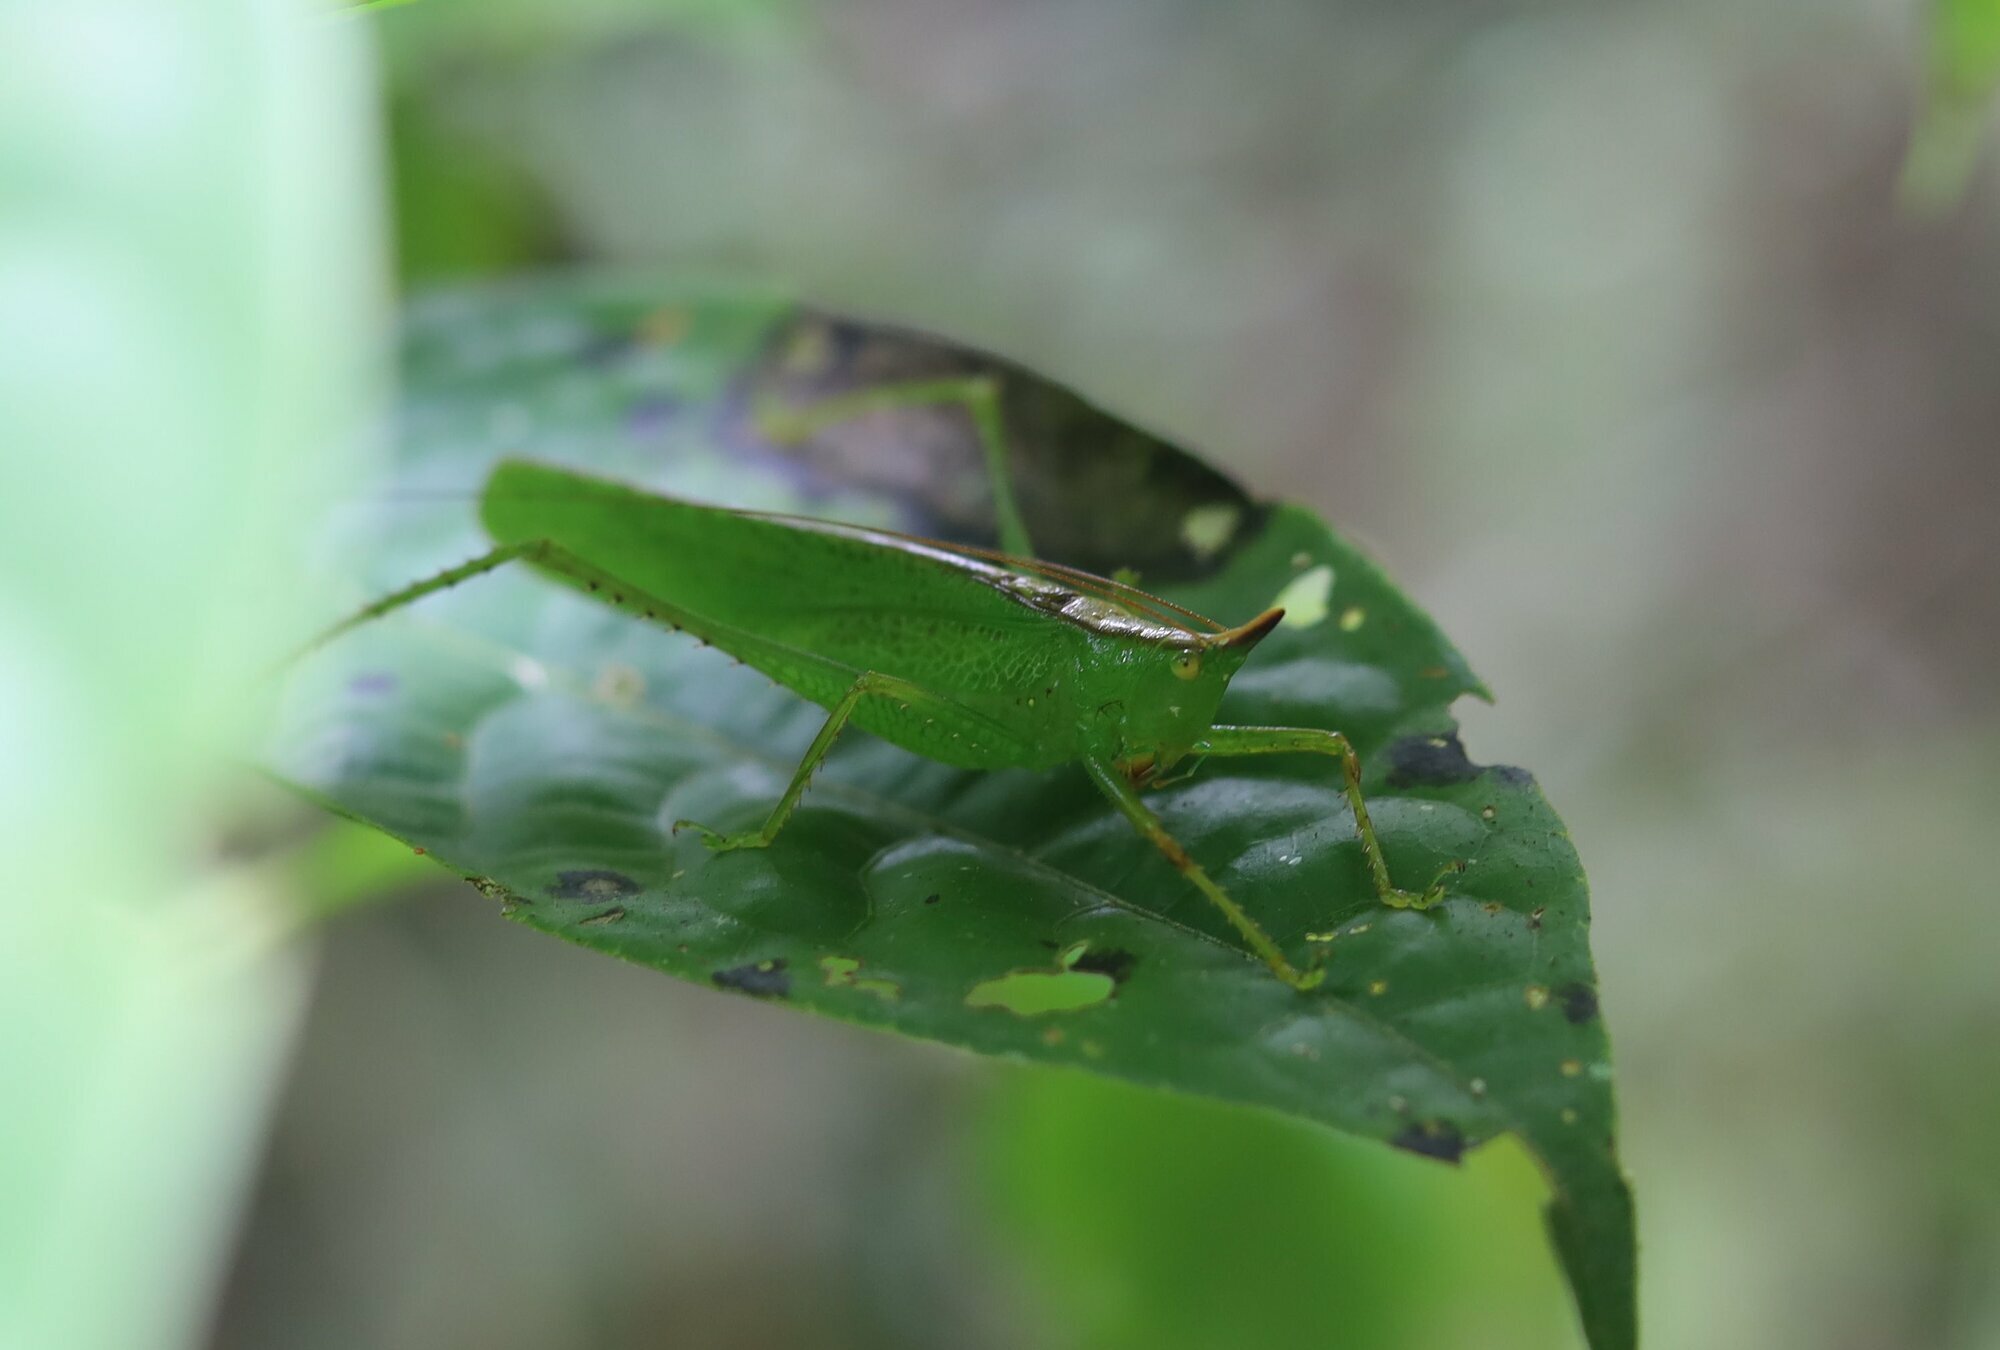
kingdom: Animalia
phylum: Arthropoda
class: Insecta
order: Orthoptera
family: Tettigoniidae
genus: Melanophoxus
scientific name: Melanophoxus brunneri
